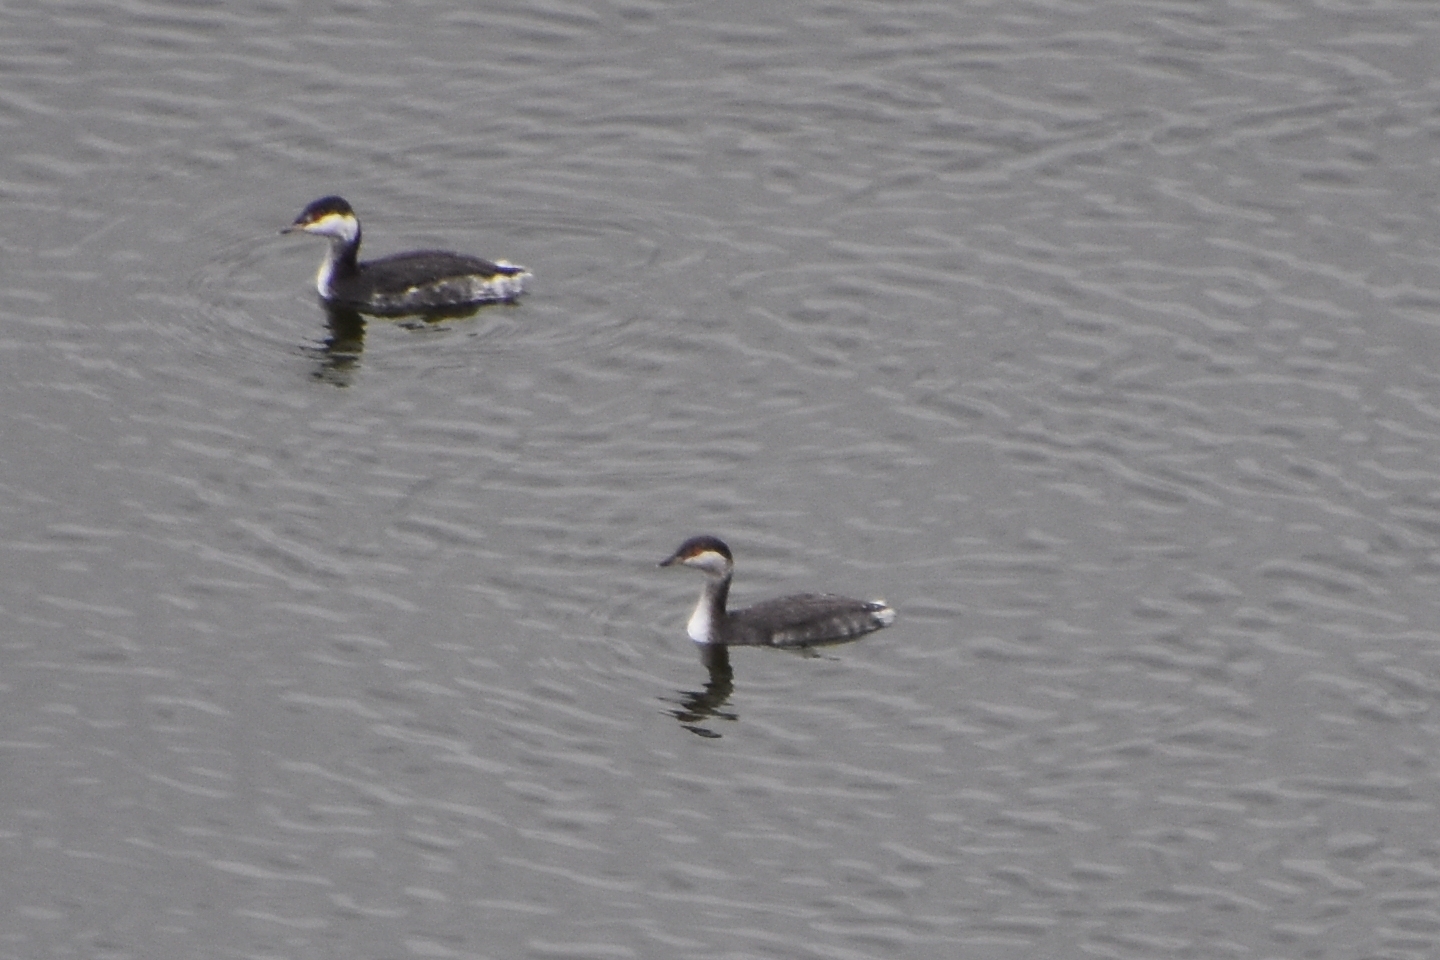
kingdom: Animalia
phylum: Chordata
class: Aves
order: Podicipediformes
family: Podicipedidae
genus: Podiceps
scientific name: Podiceps auritus
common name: Horned grebe
